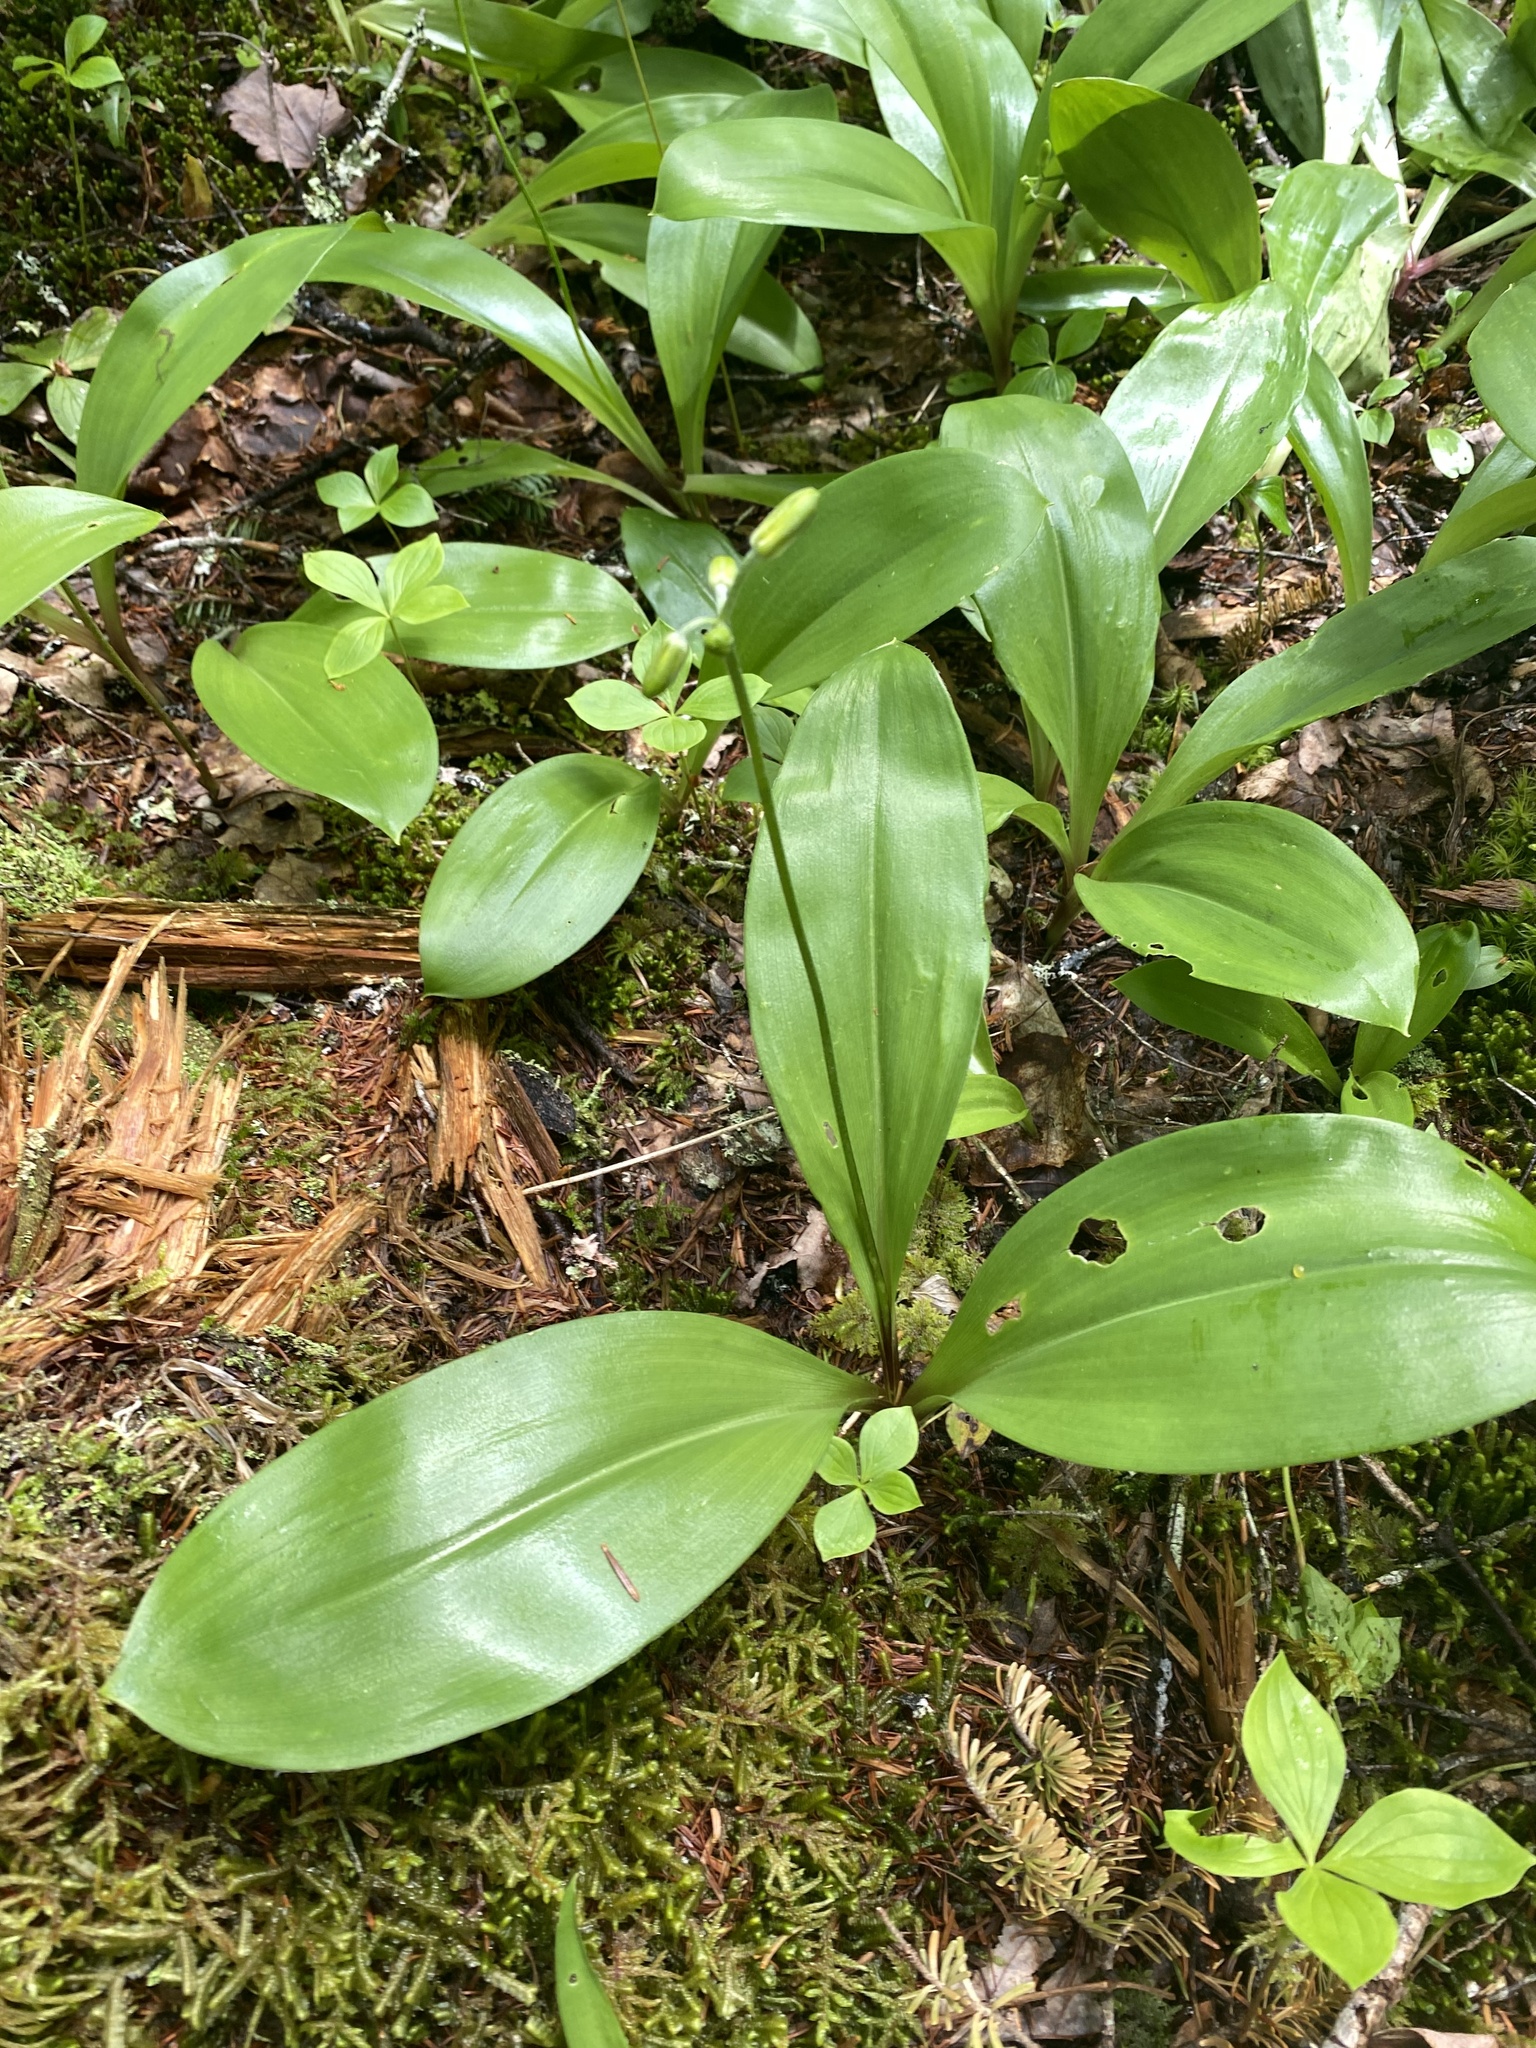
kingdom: Plantae
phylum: Tracheophyta
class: Liliopsida
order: Liliales
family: Liliaceae
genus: Clintonia
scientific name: Clintonia borealis
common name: Yellow clintonia
